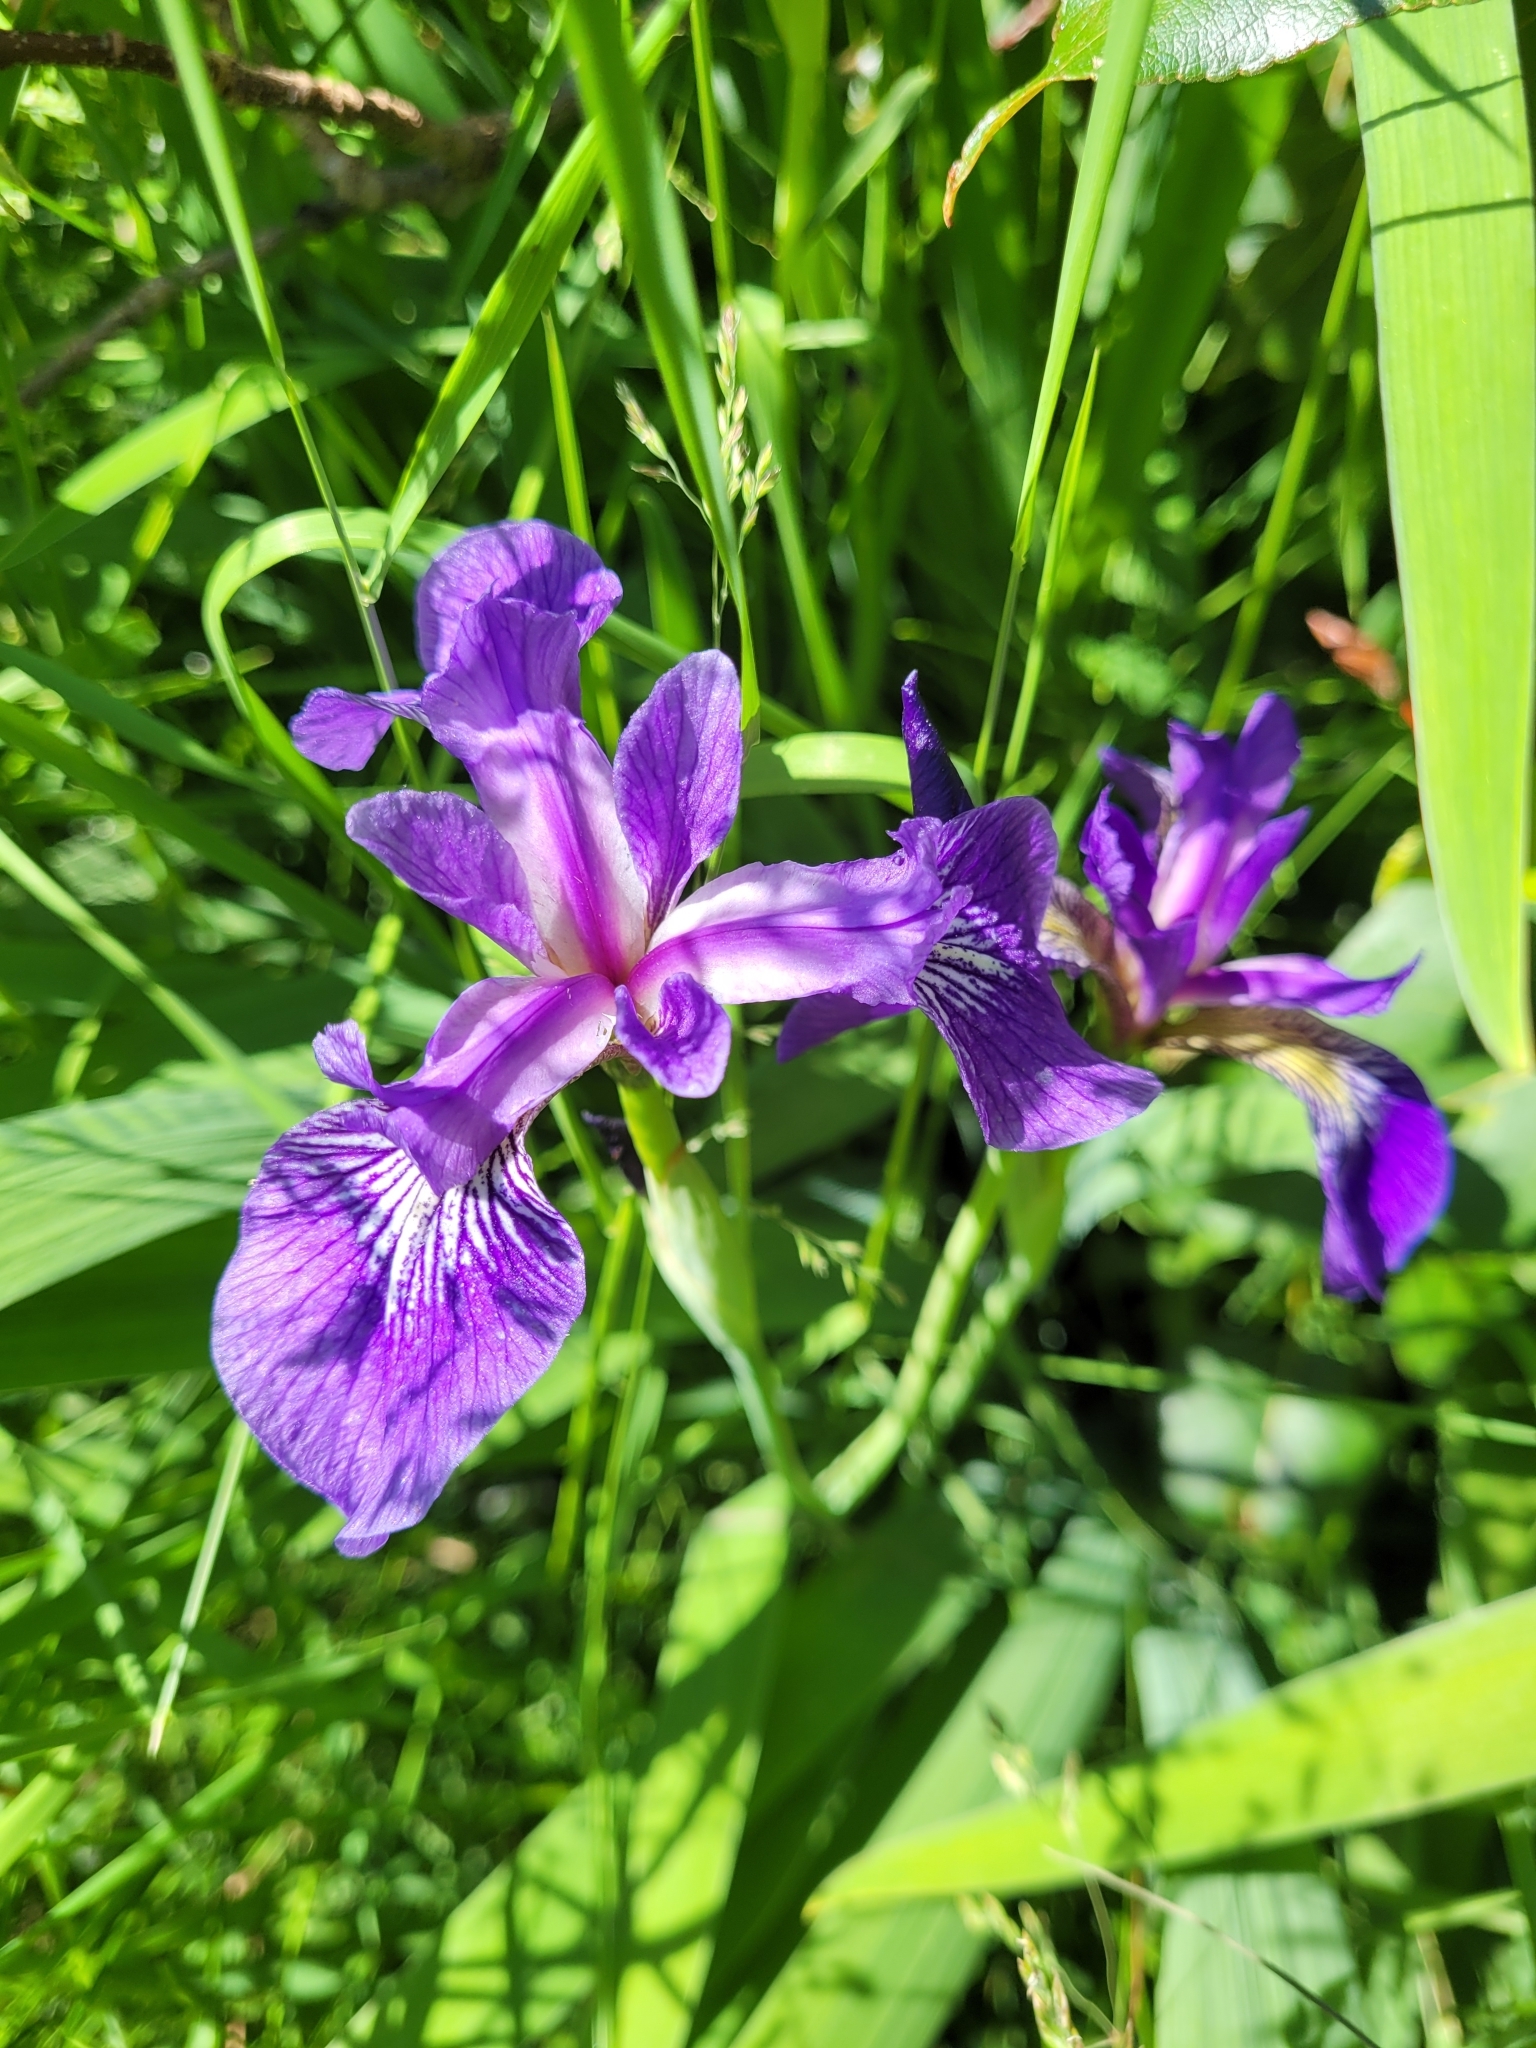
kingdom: Plantae
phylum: Tracheophyta
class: Liliopsida
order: Asparagales
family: Iridaceae
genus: Iris
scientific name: Iris versicolor
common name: Purple iris
